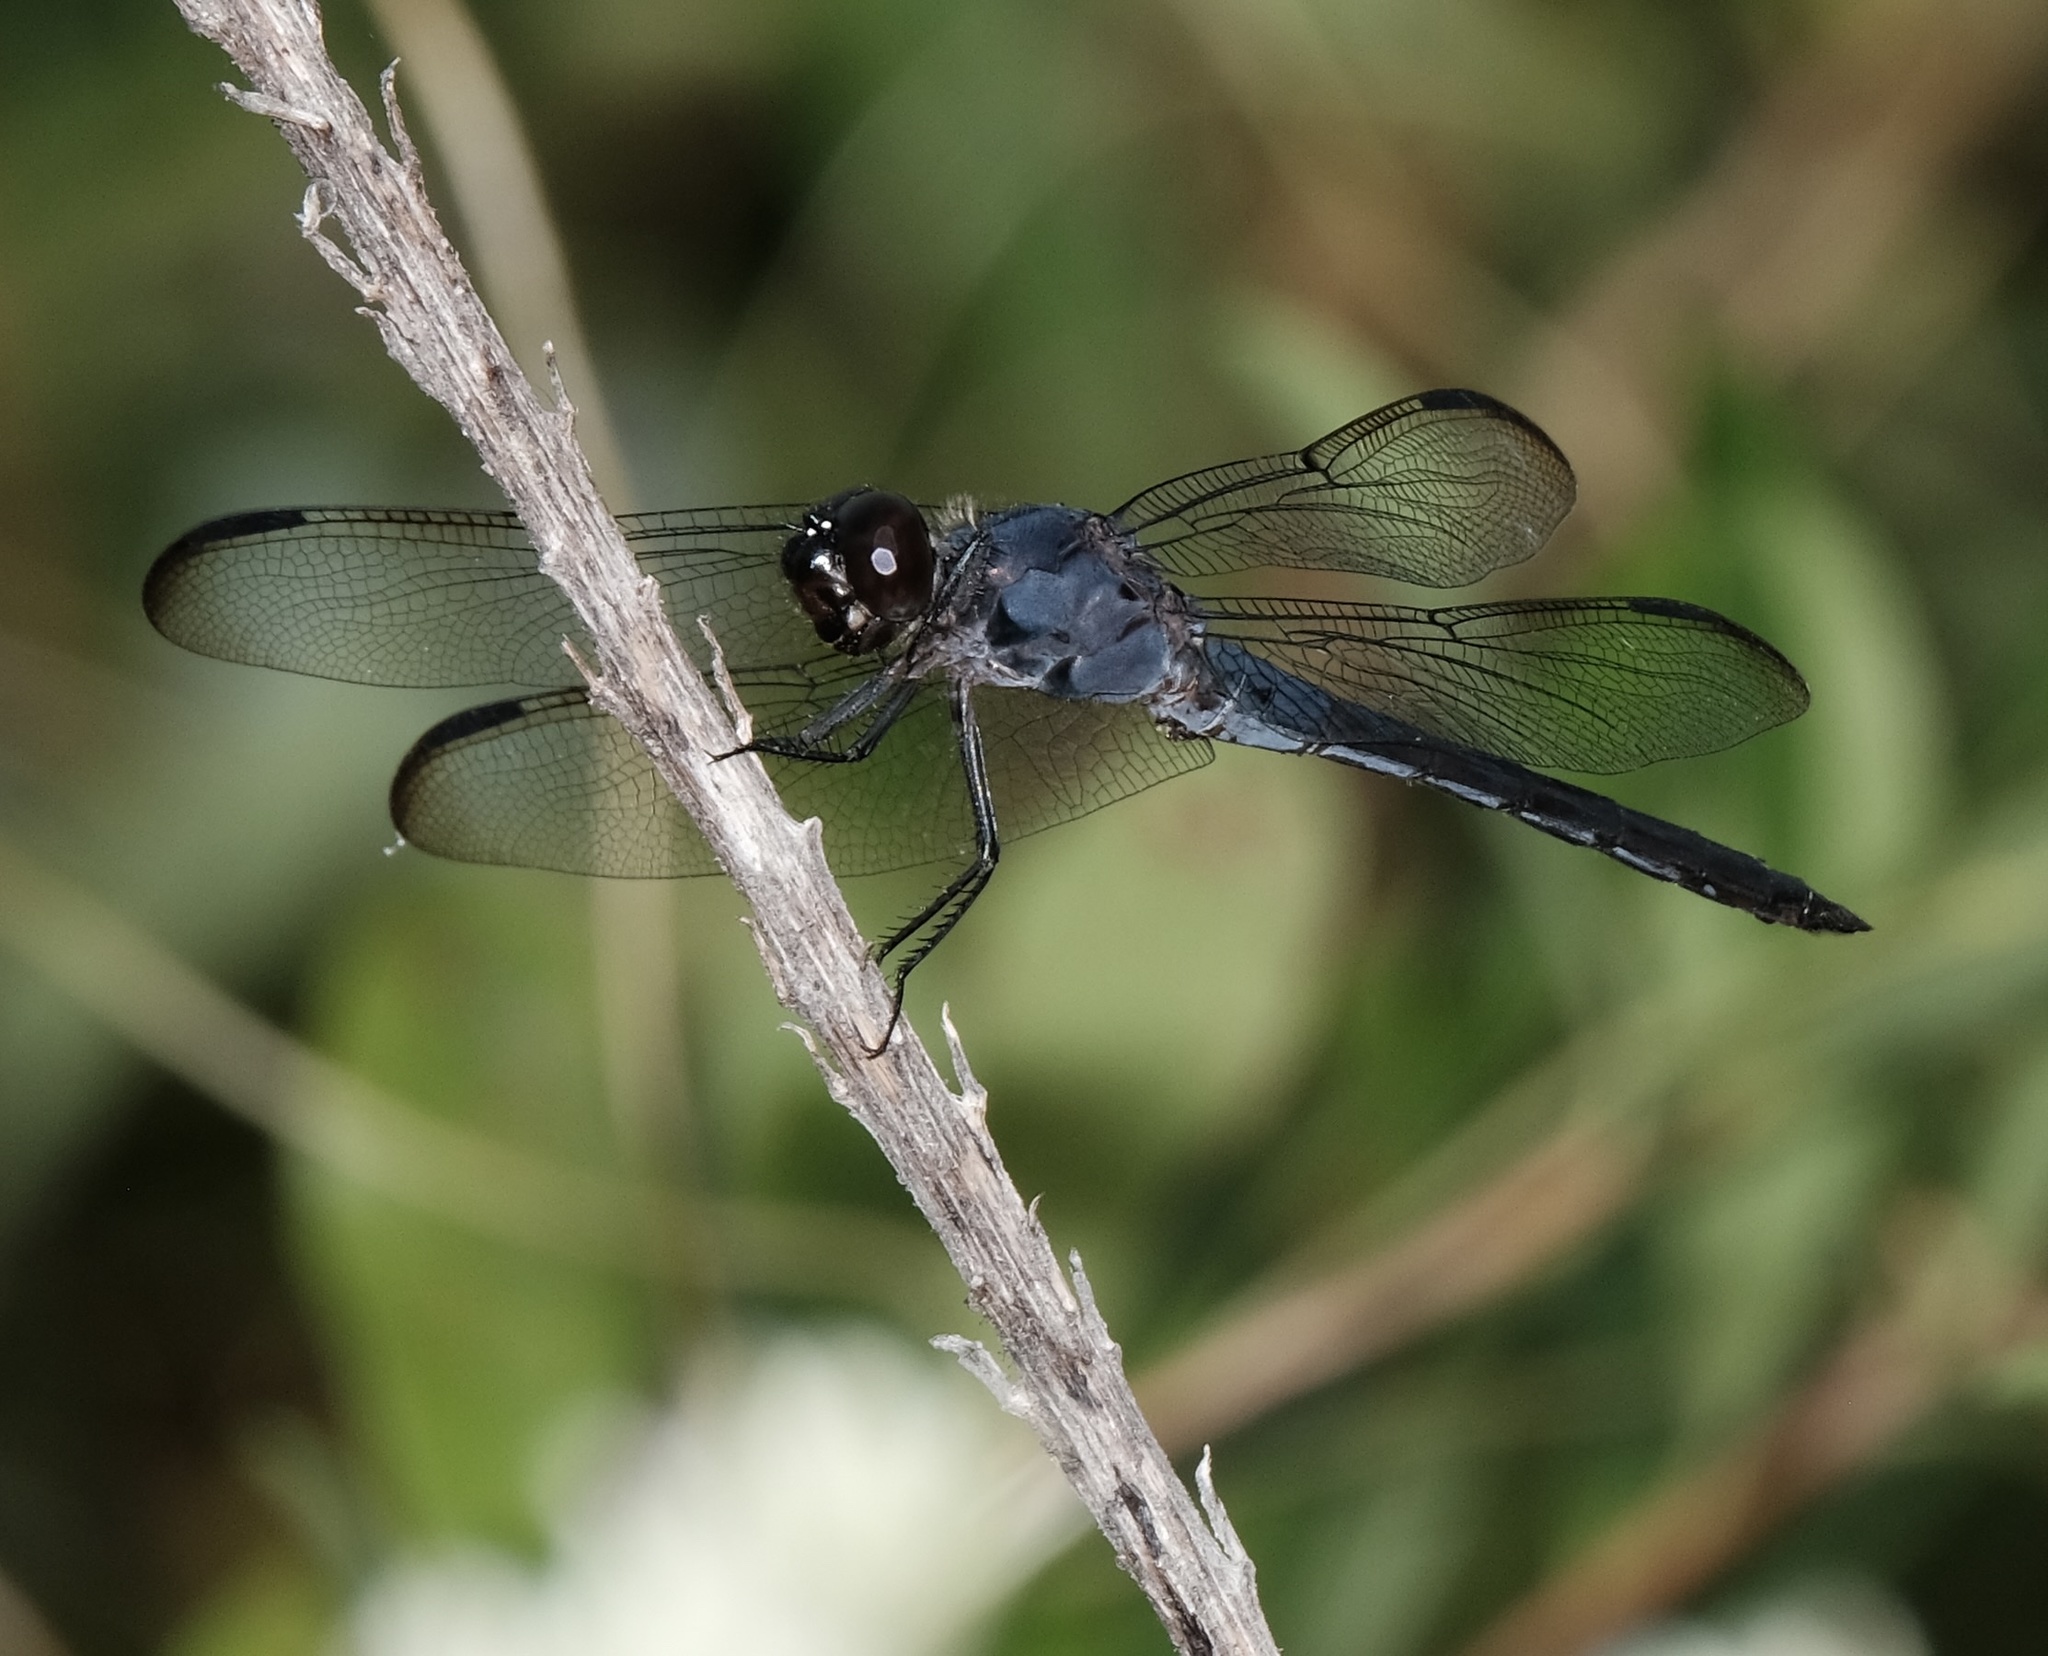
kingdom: Animalia
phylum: Arthropoda
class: Insecta
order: Odonata
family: Libellulidae
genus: Libellula
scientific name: Libellula incesta
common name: Slaty skimmer
